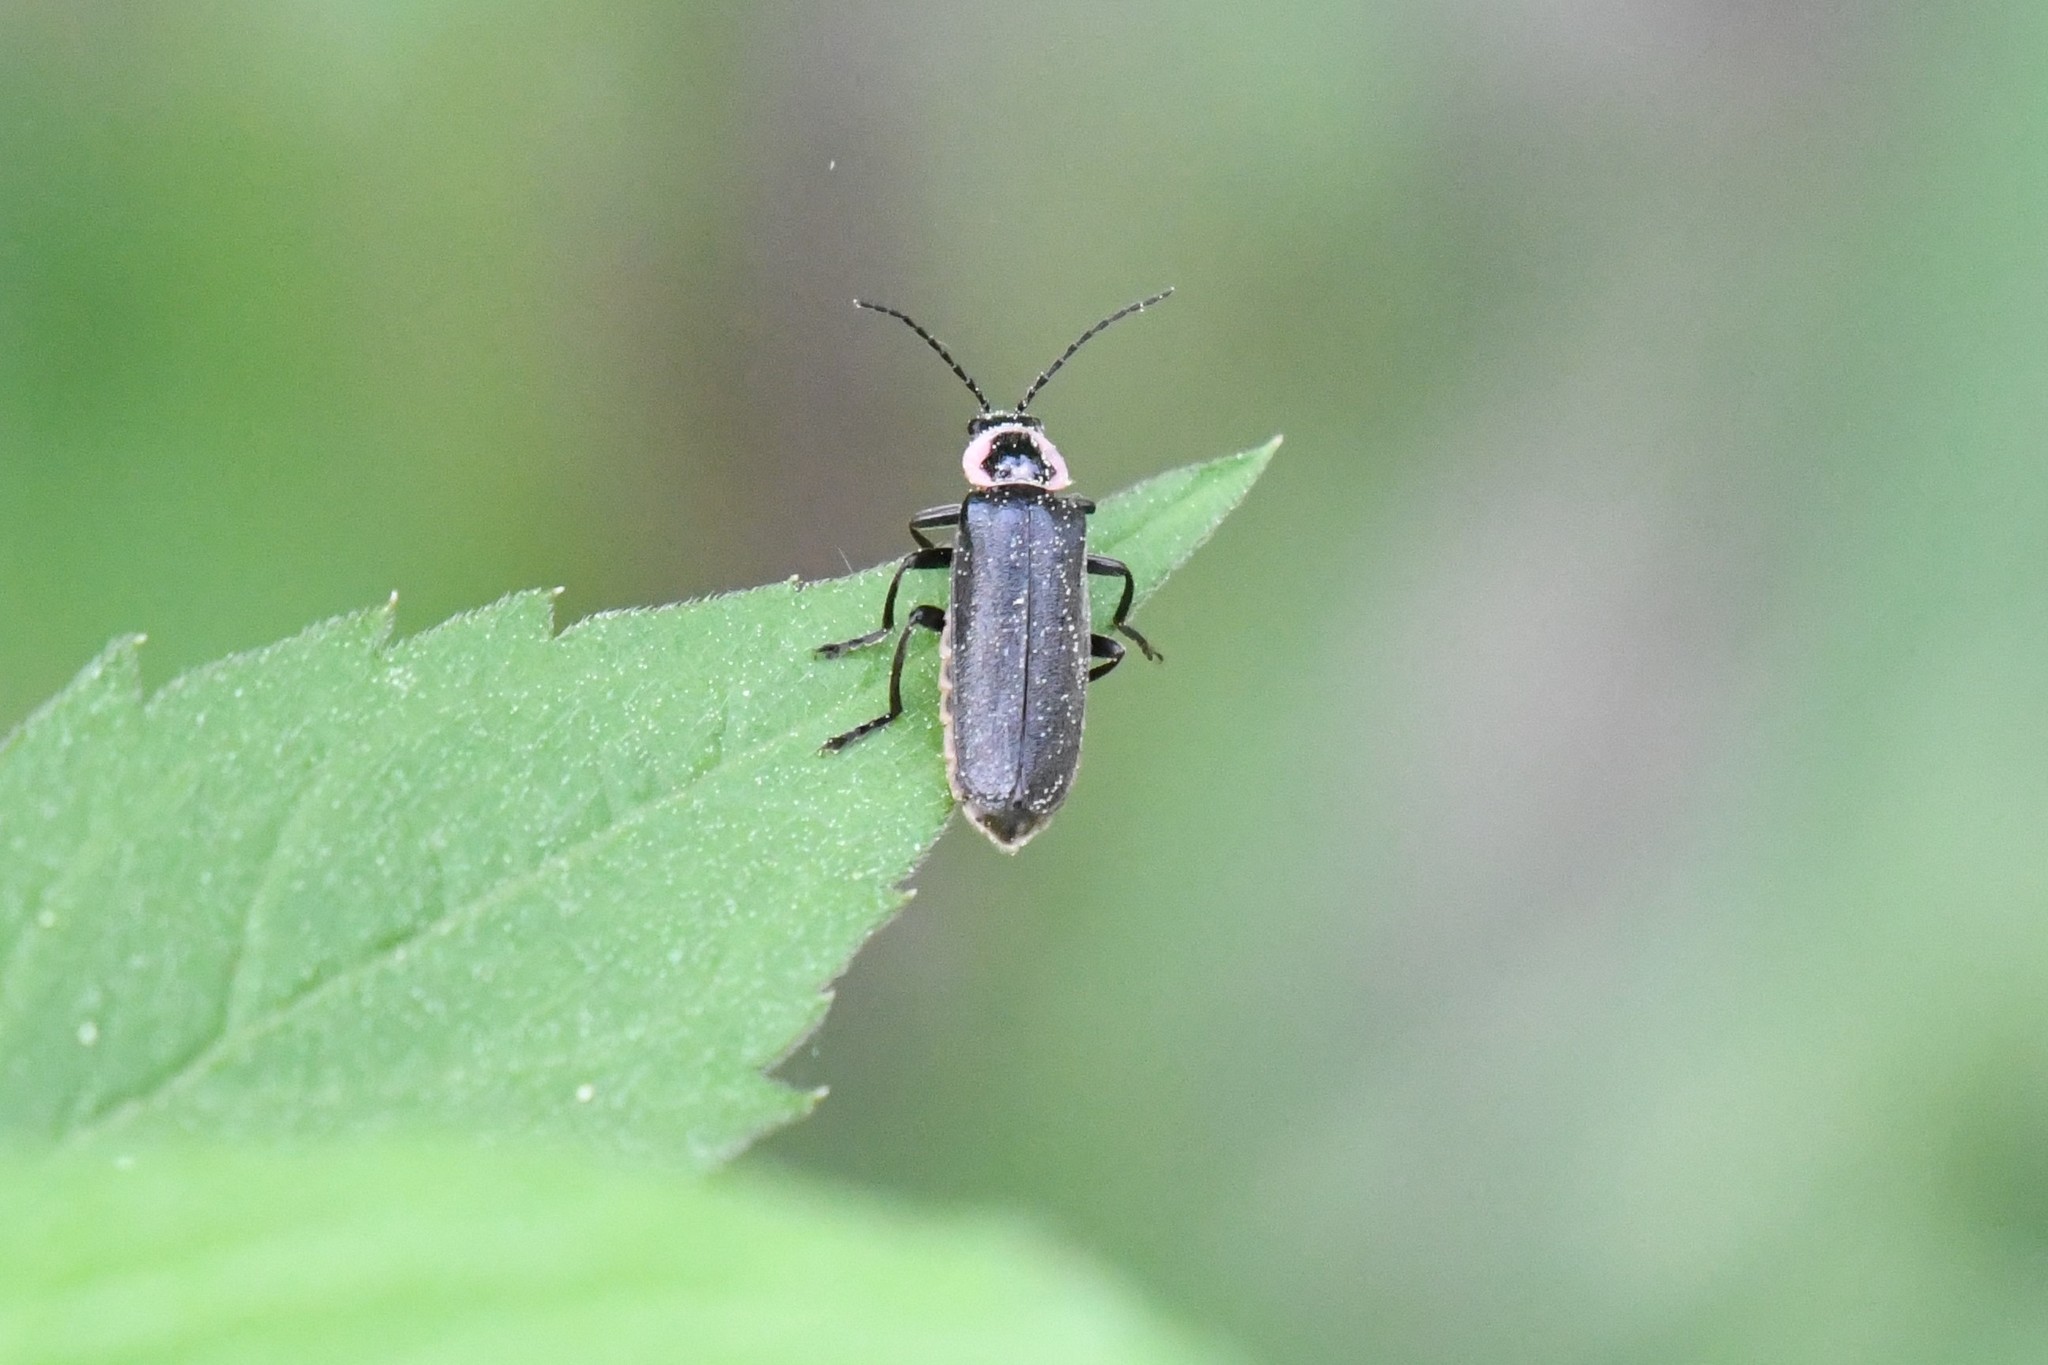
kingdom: Animalia
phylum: Arthropoda
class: Insecta
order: Coleoptera
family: Cantharidae
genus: Atalantycha
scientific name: Atalantycha neglecta
